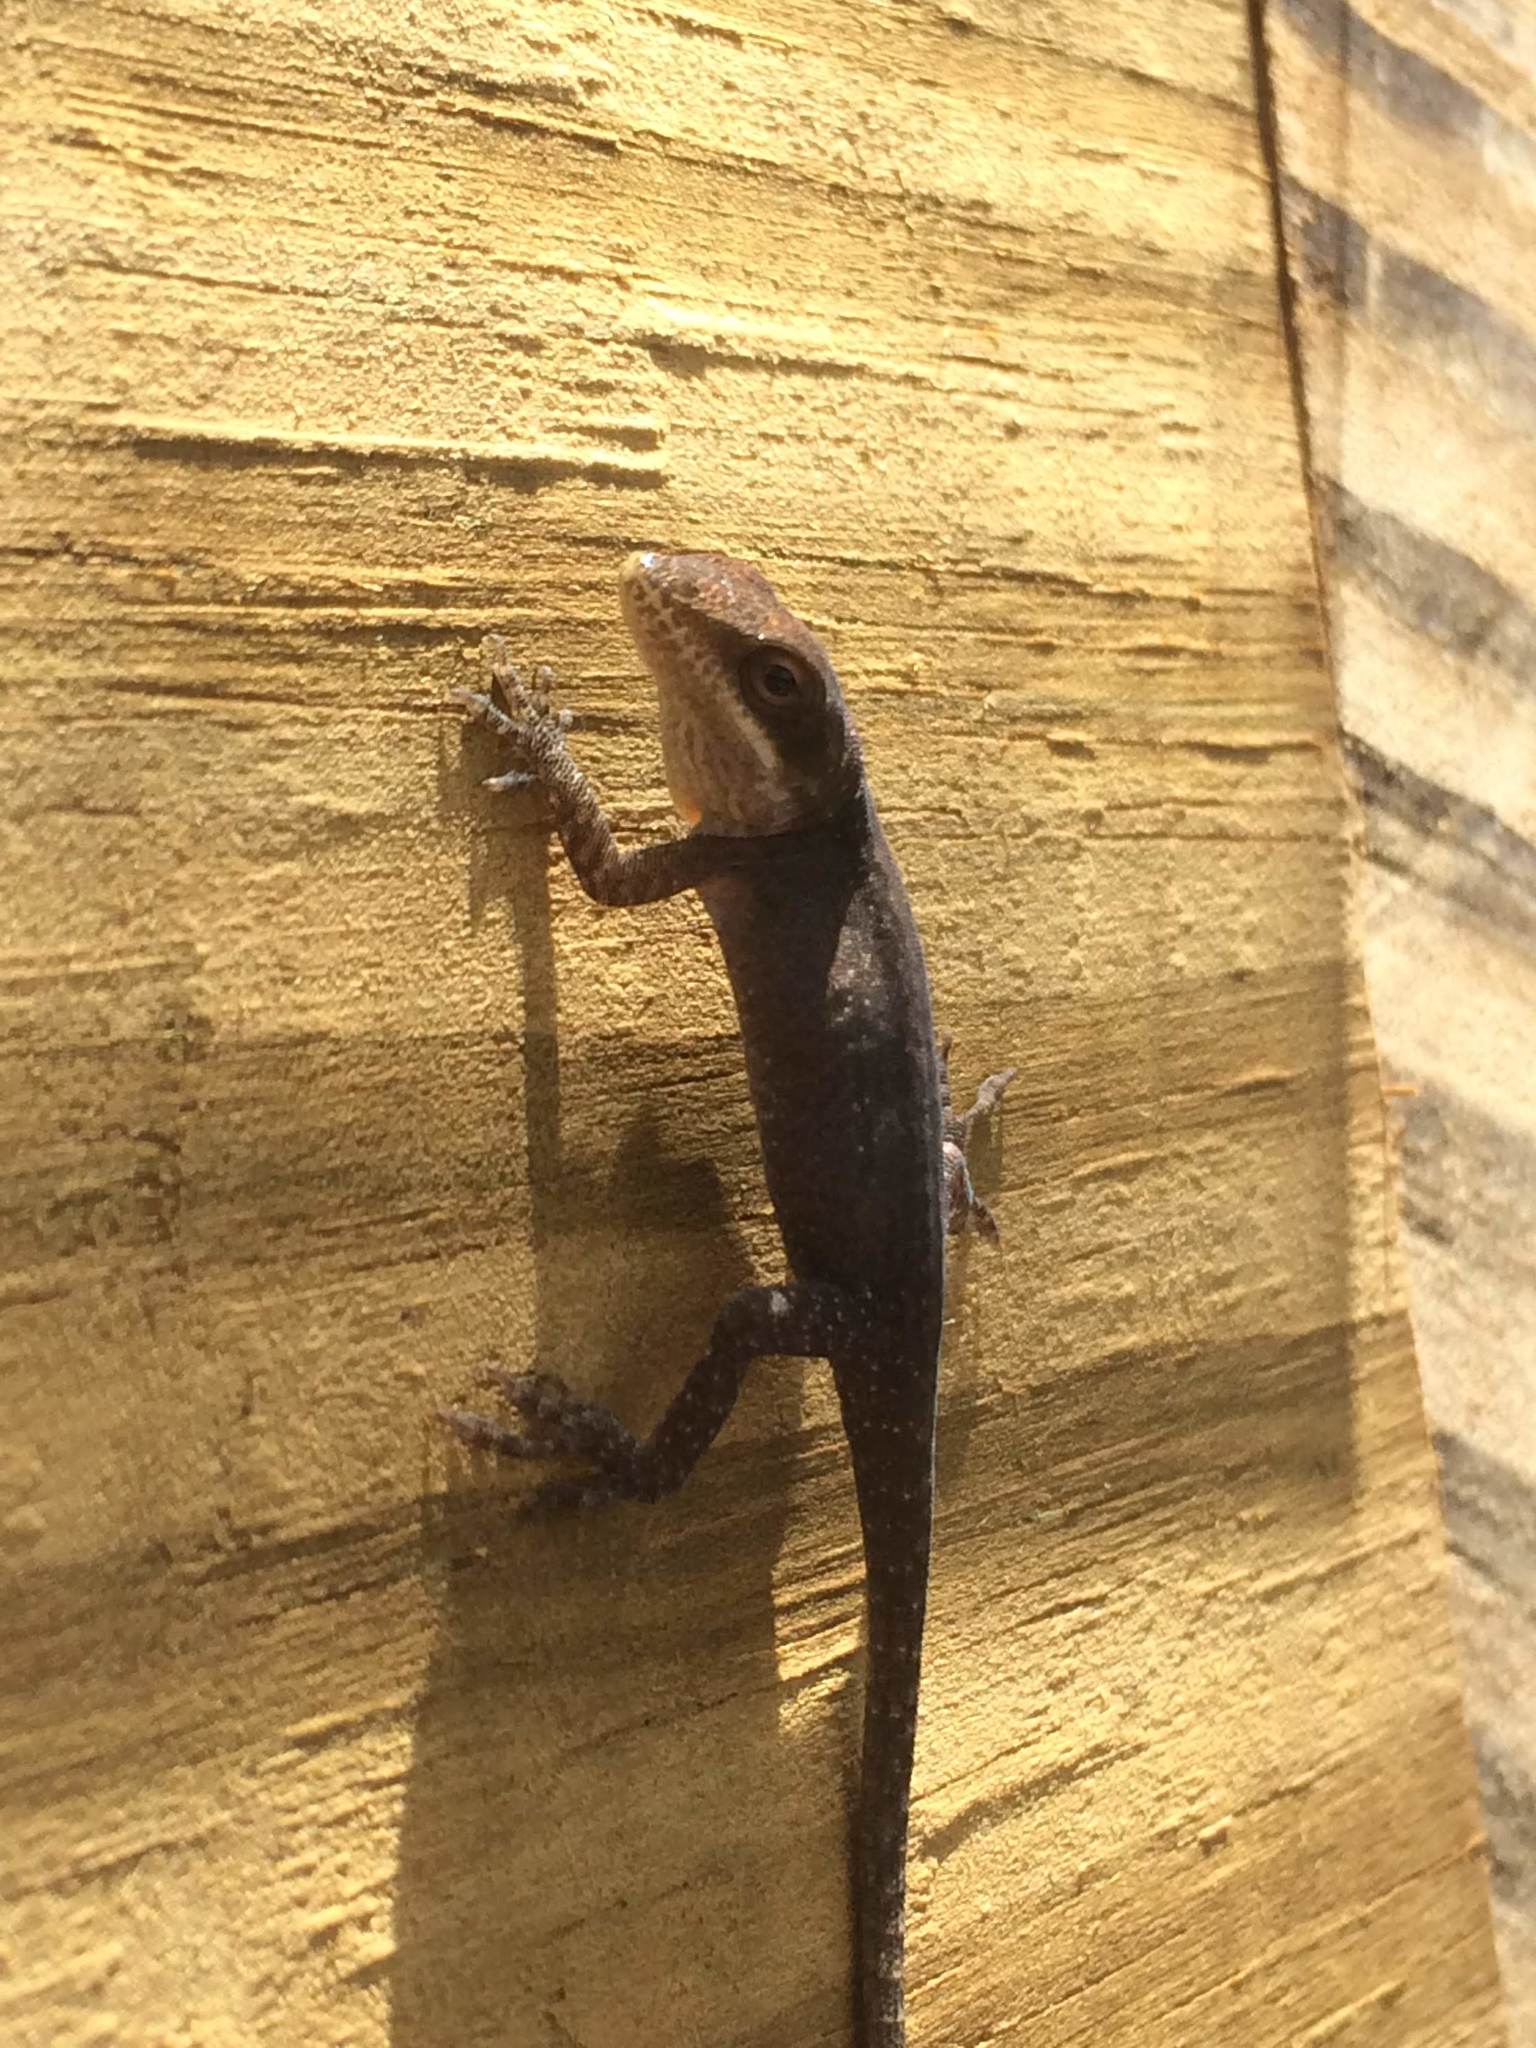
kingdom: Animalia
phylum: Chordata
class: Squamata
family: Dactyloidae
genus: Anolis
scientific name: Anolis carolinensis
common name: Green anole
